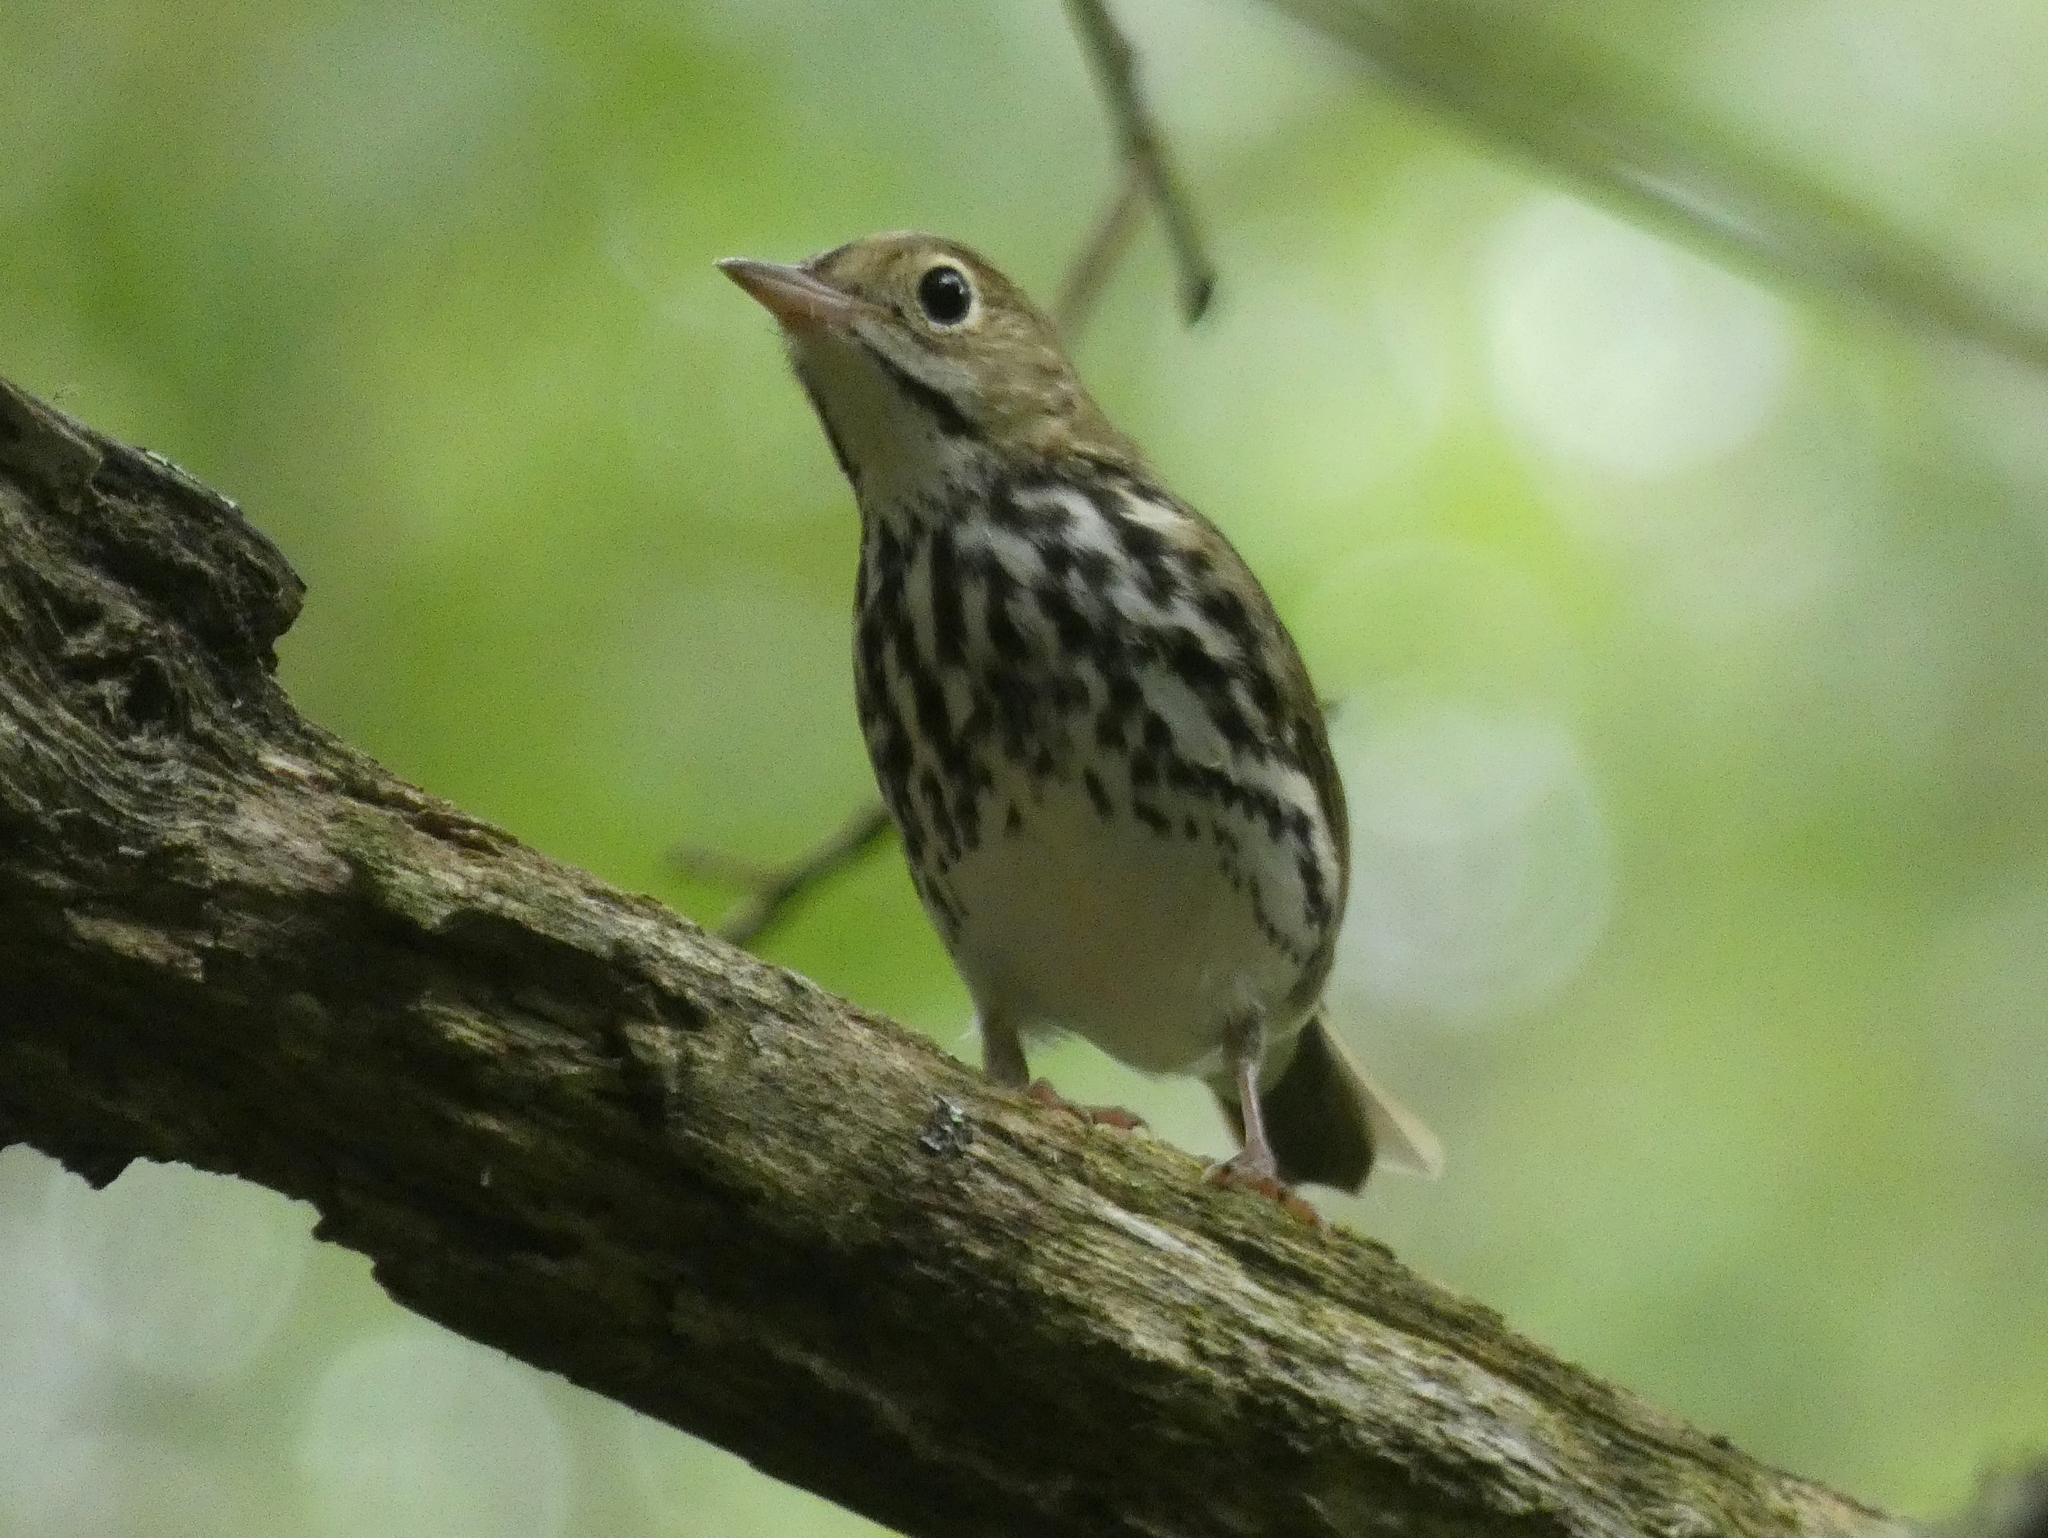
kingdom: Animalia
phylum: Chordata
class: Aves
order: Passeriformes
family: Parulidae
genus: Seiurus
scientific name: Seiurus aurocapilla
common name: Ovenbird
